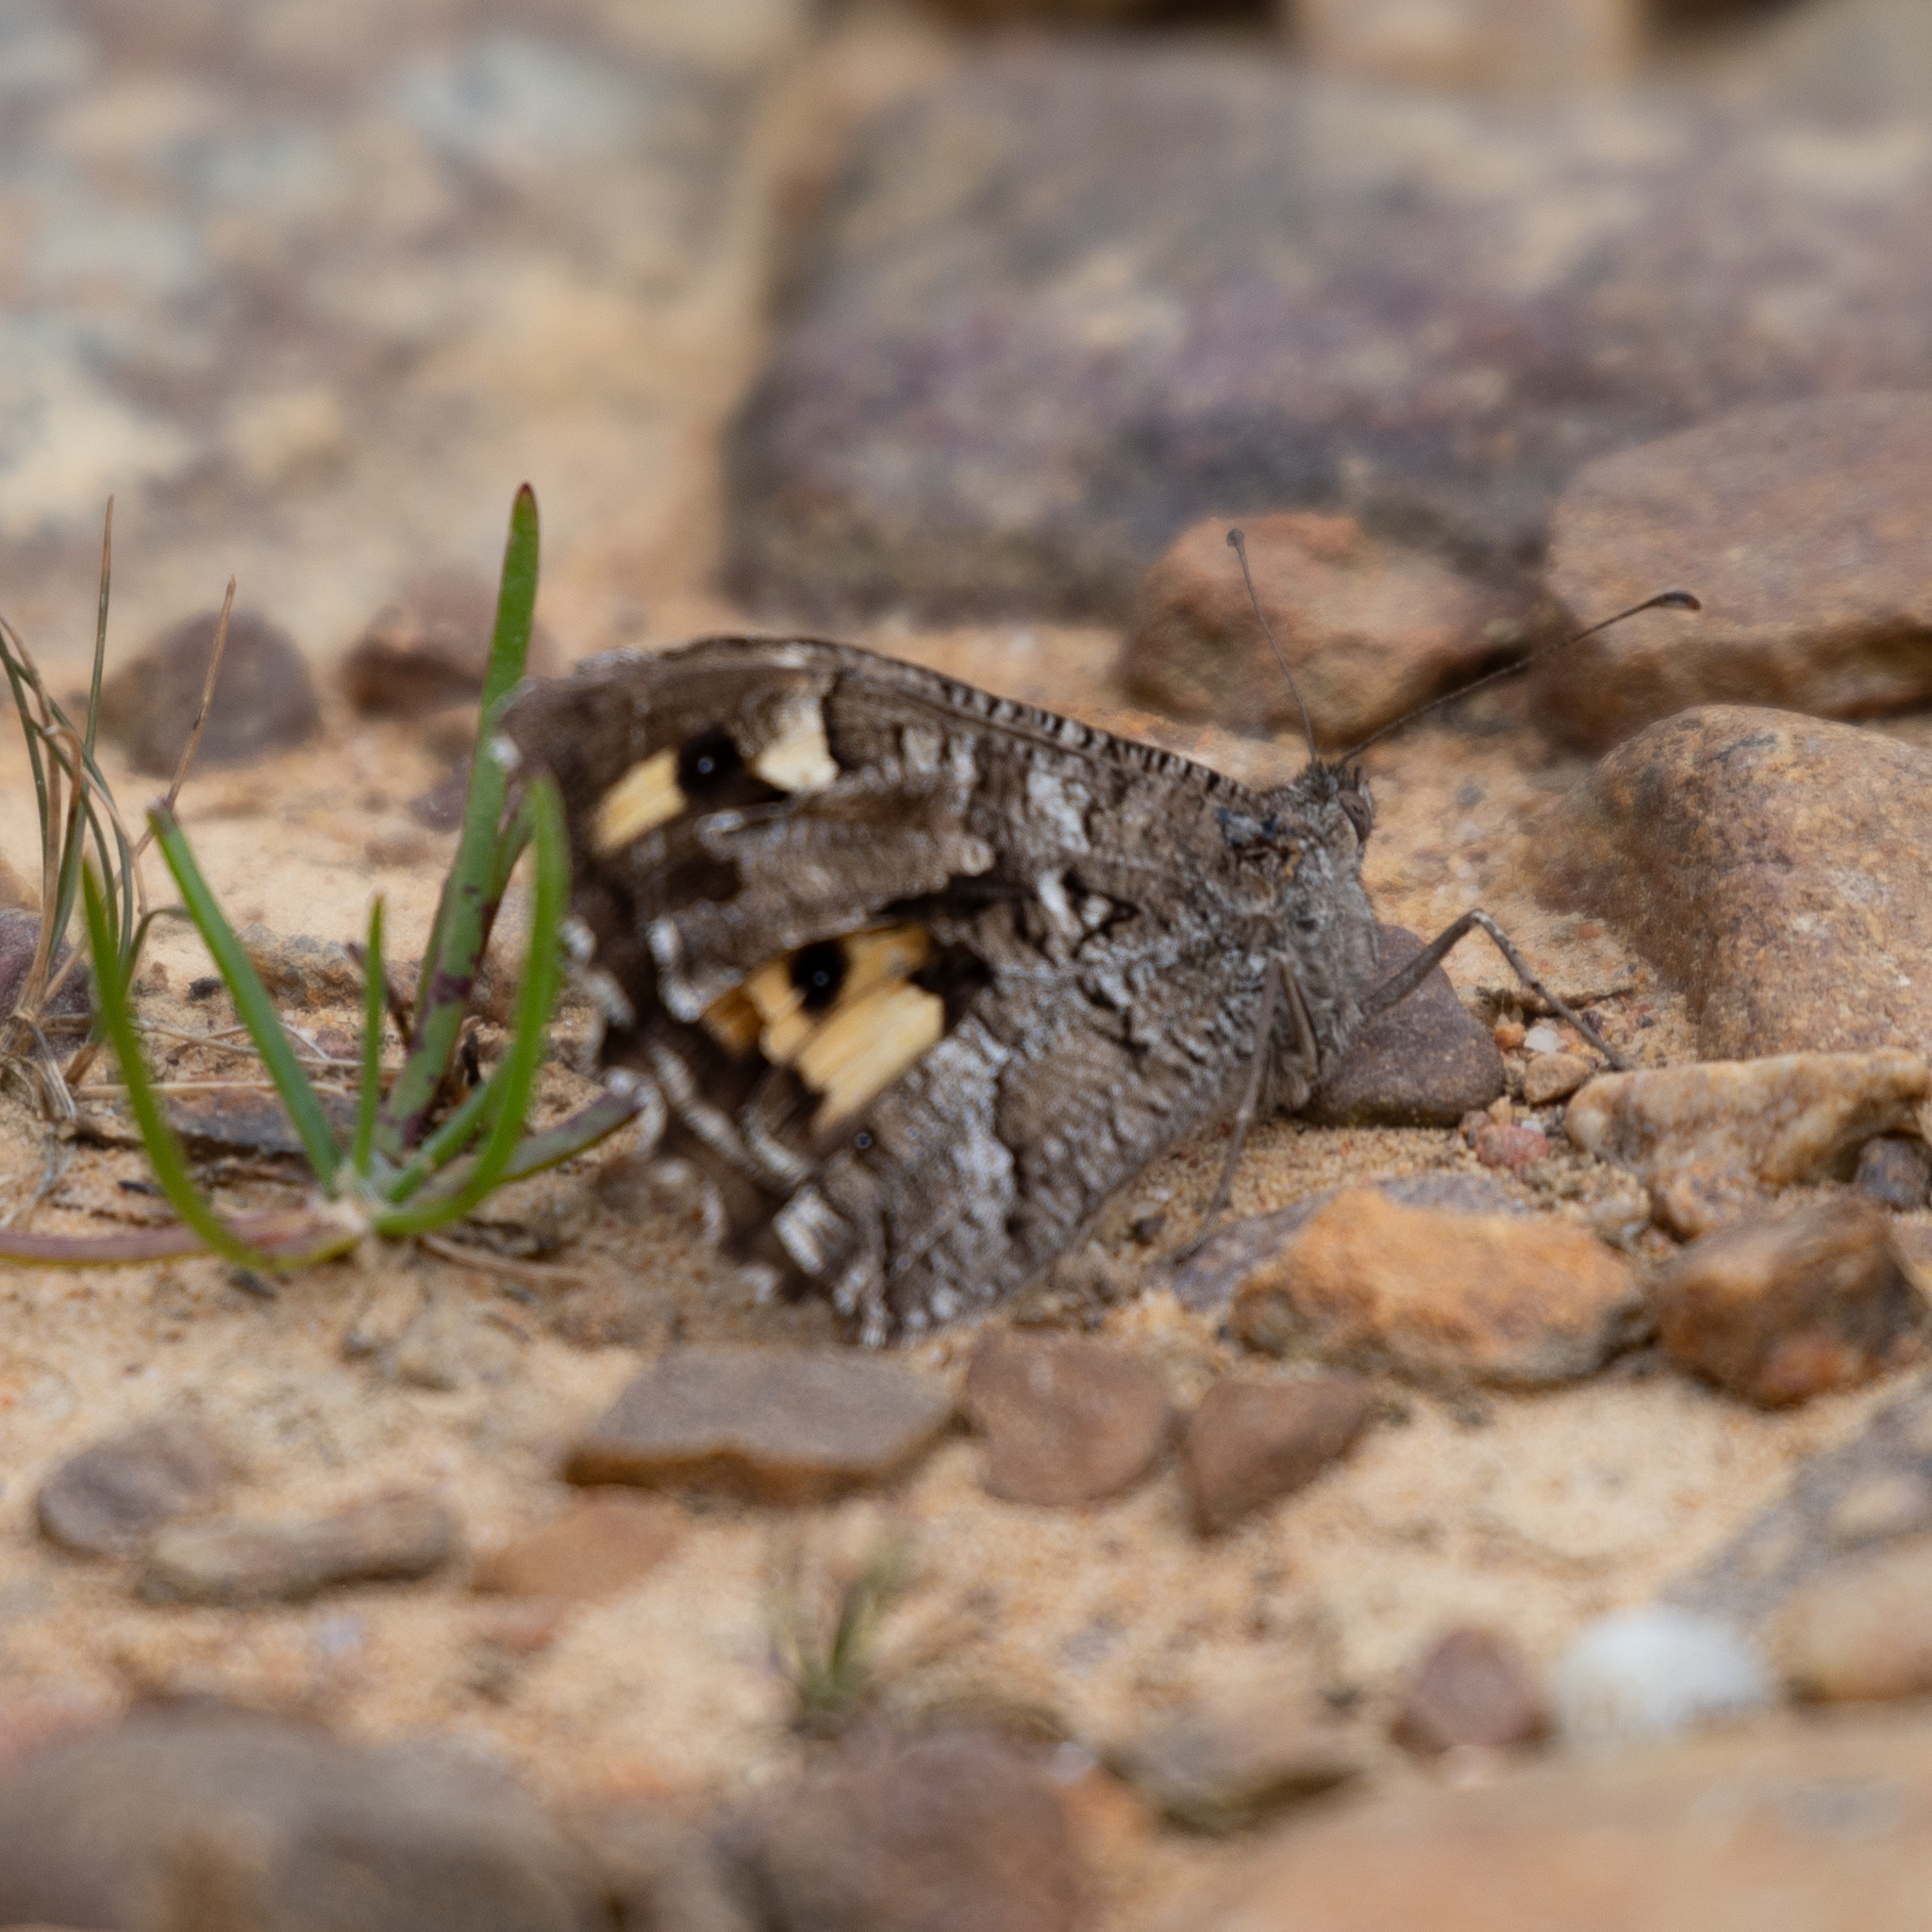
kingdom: Animalia
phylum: Arthropoda
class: Insecta
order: Lepidoptera
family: Nymphalidae
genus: Hipparchia
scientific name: Hipparchia semele
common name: Grayling
